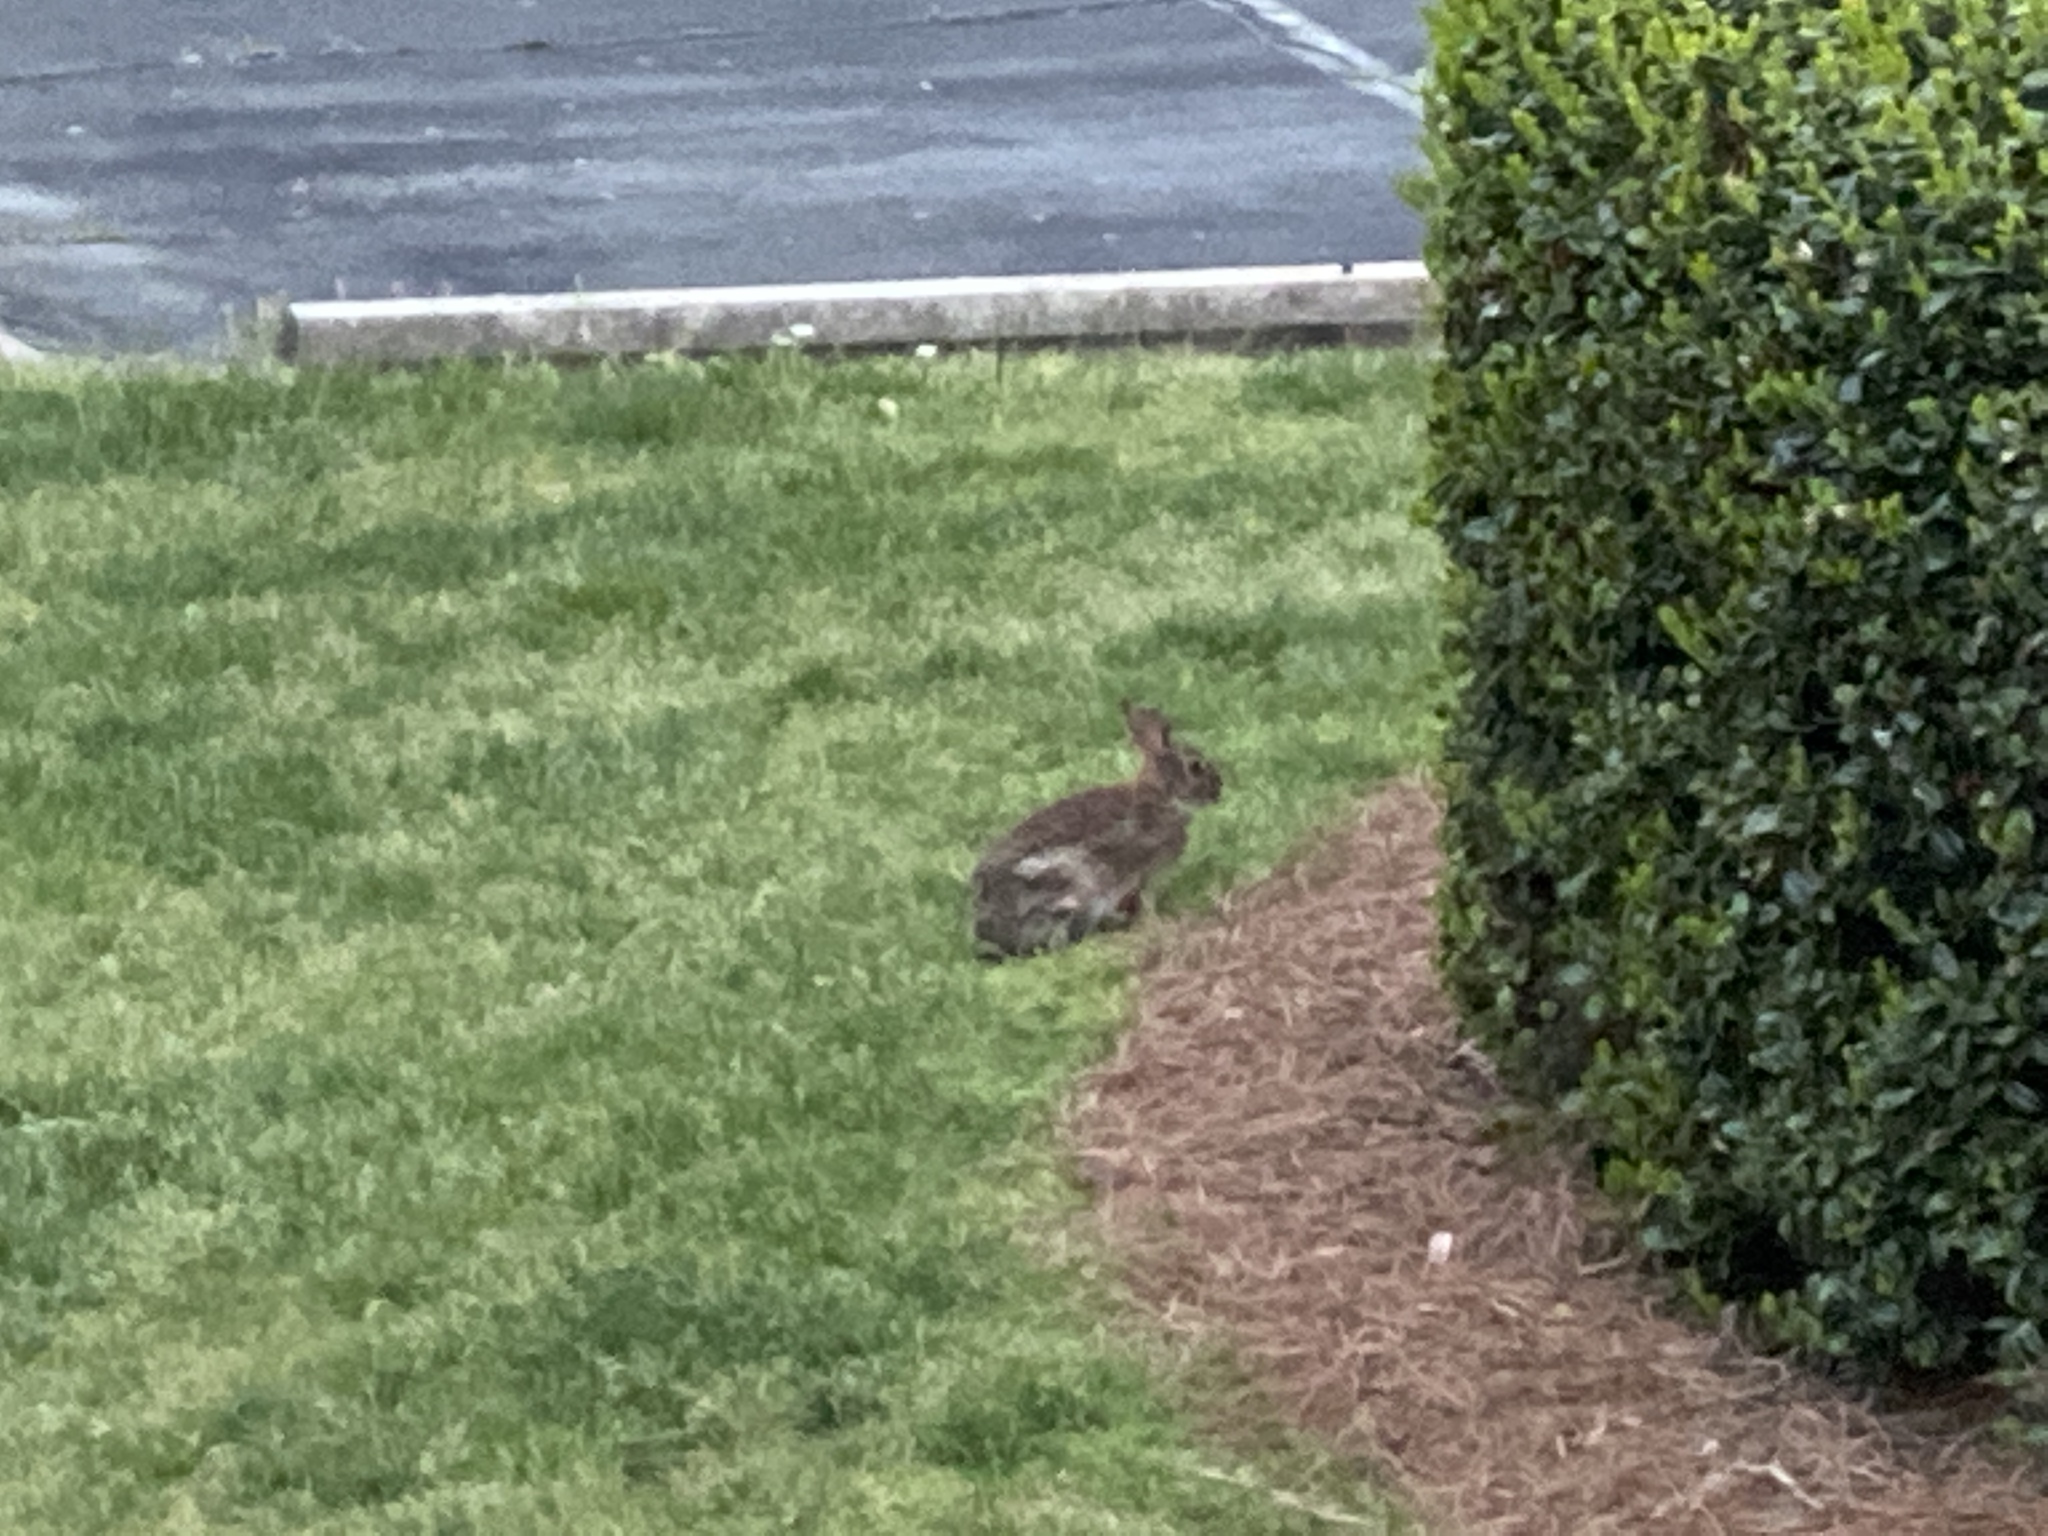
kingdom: Animalia
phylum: Chordata
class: Mammalia
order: Lagomorpha
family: Leporidae
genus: Sylvilagus
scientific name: Sylvilagus floridanus
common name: Eastern cottontail
